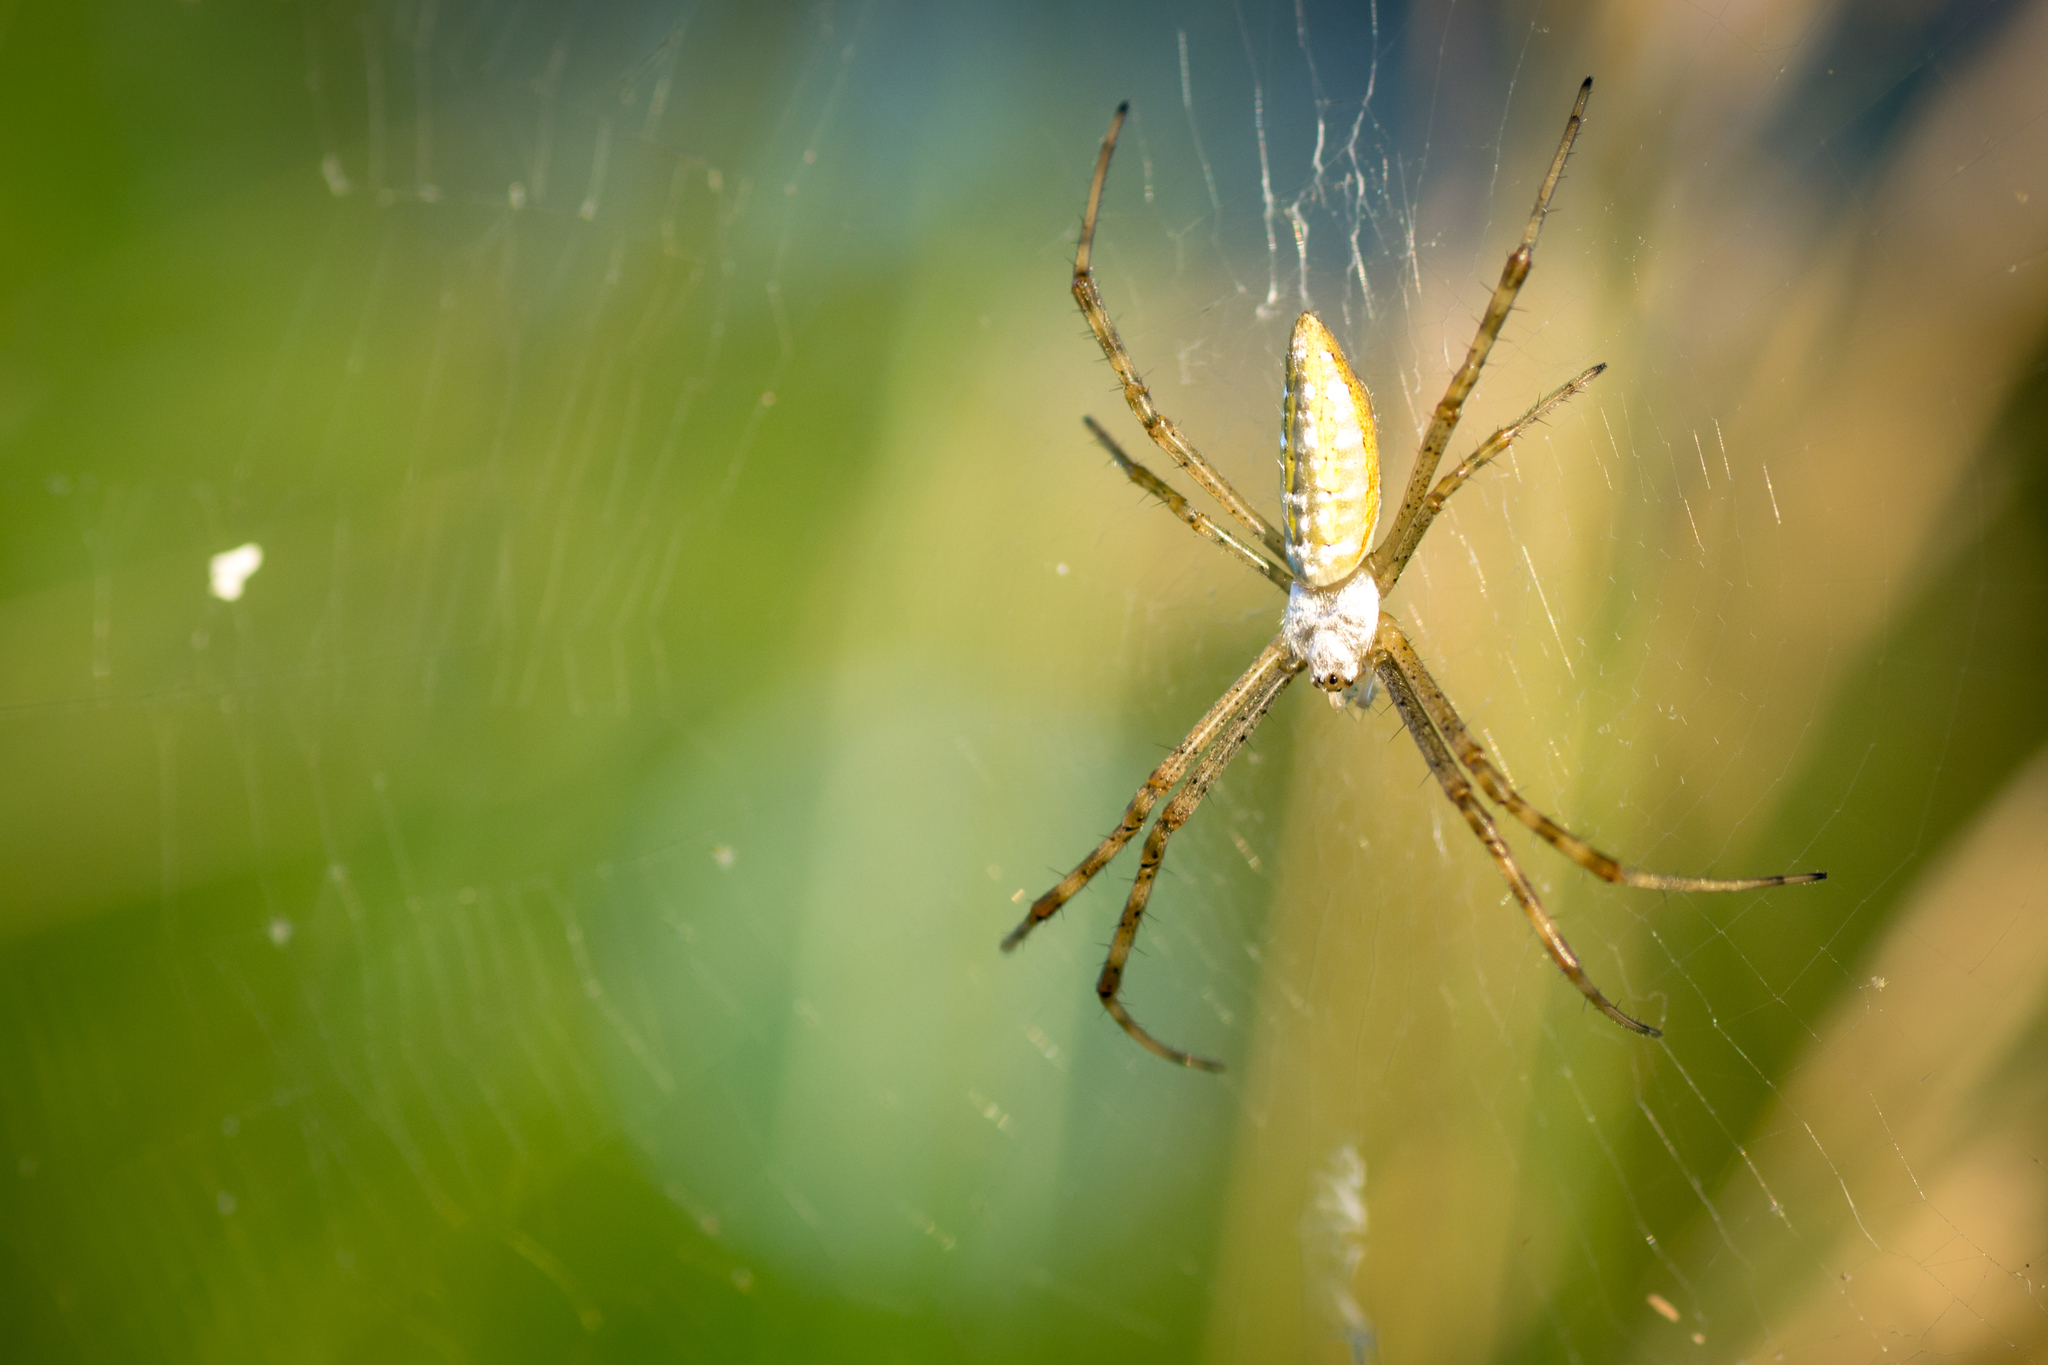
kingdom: Animalia
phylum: Arthropoda
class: Arachnida
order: Araneae
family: Araneidae
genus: Argiope
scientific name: Argiope trifasciata
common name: Banded garden spider
